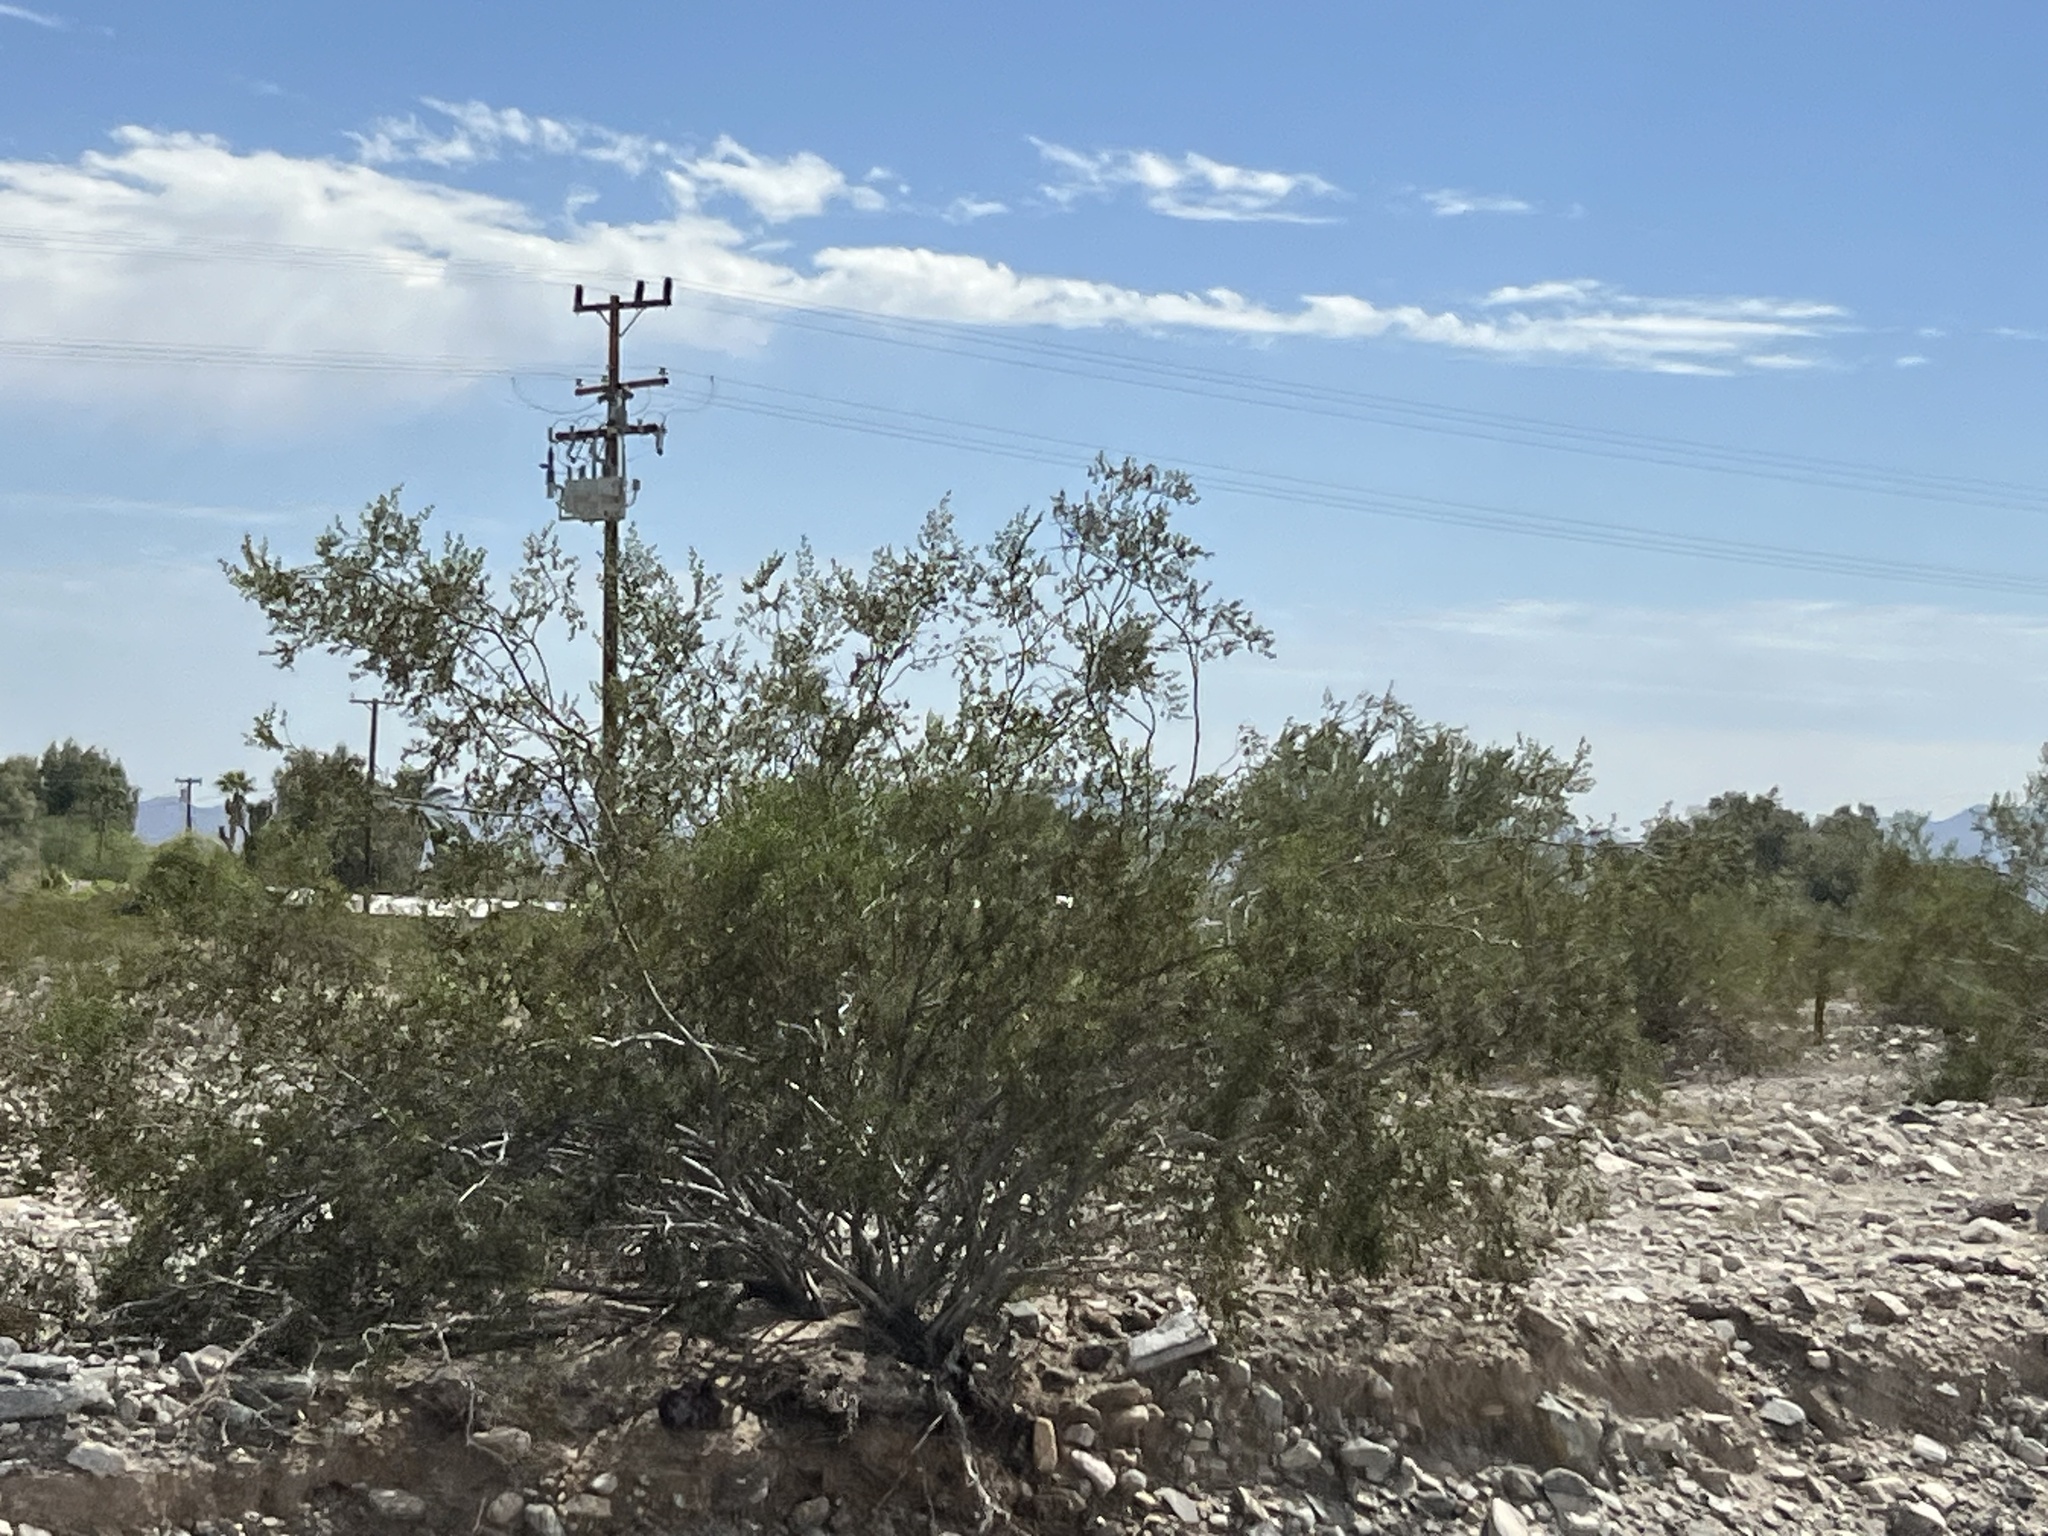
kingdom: Plantae
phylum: Tracheophyta
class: Magnoliopsida
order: Zygophyllales
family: Zygophyllaceae
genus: Larrea
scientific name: Larrea tridentata
